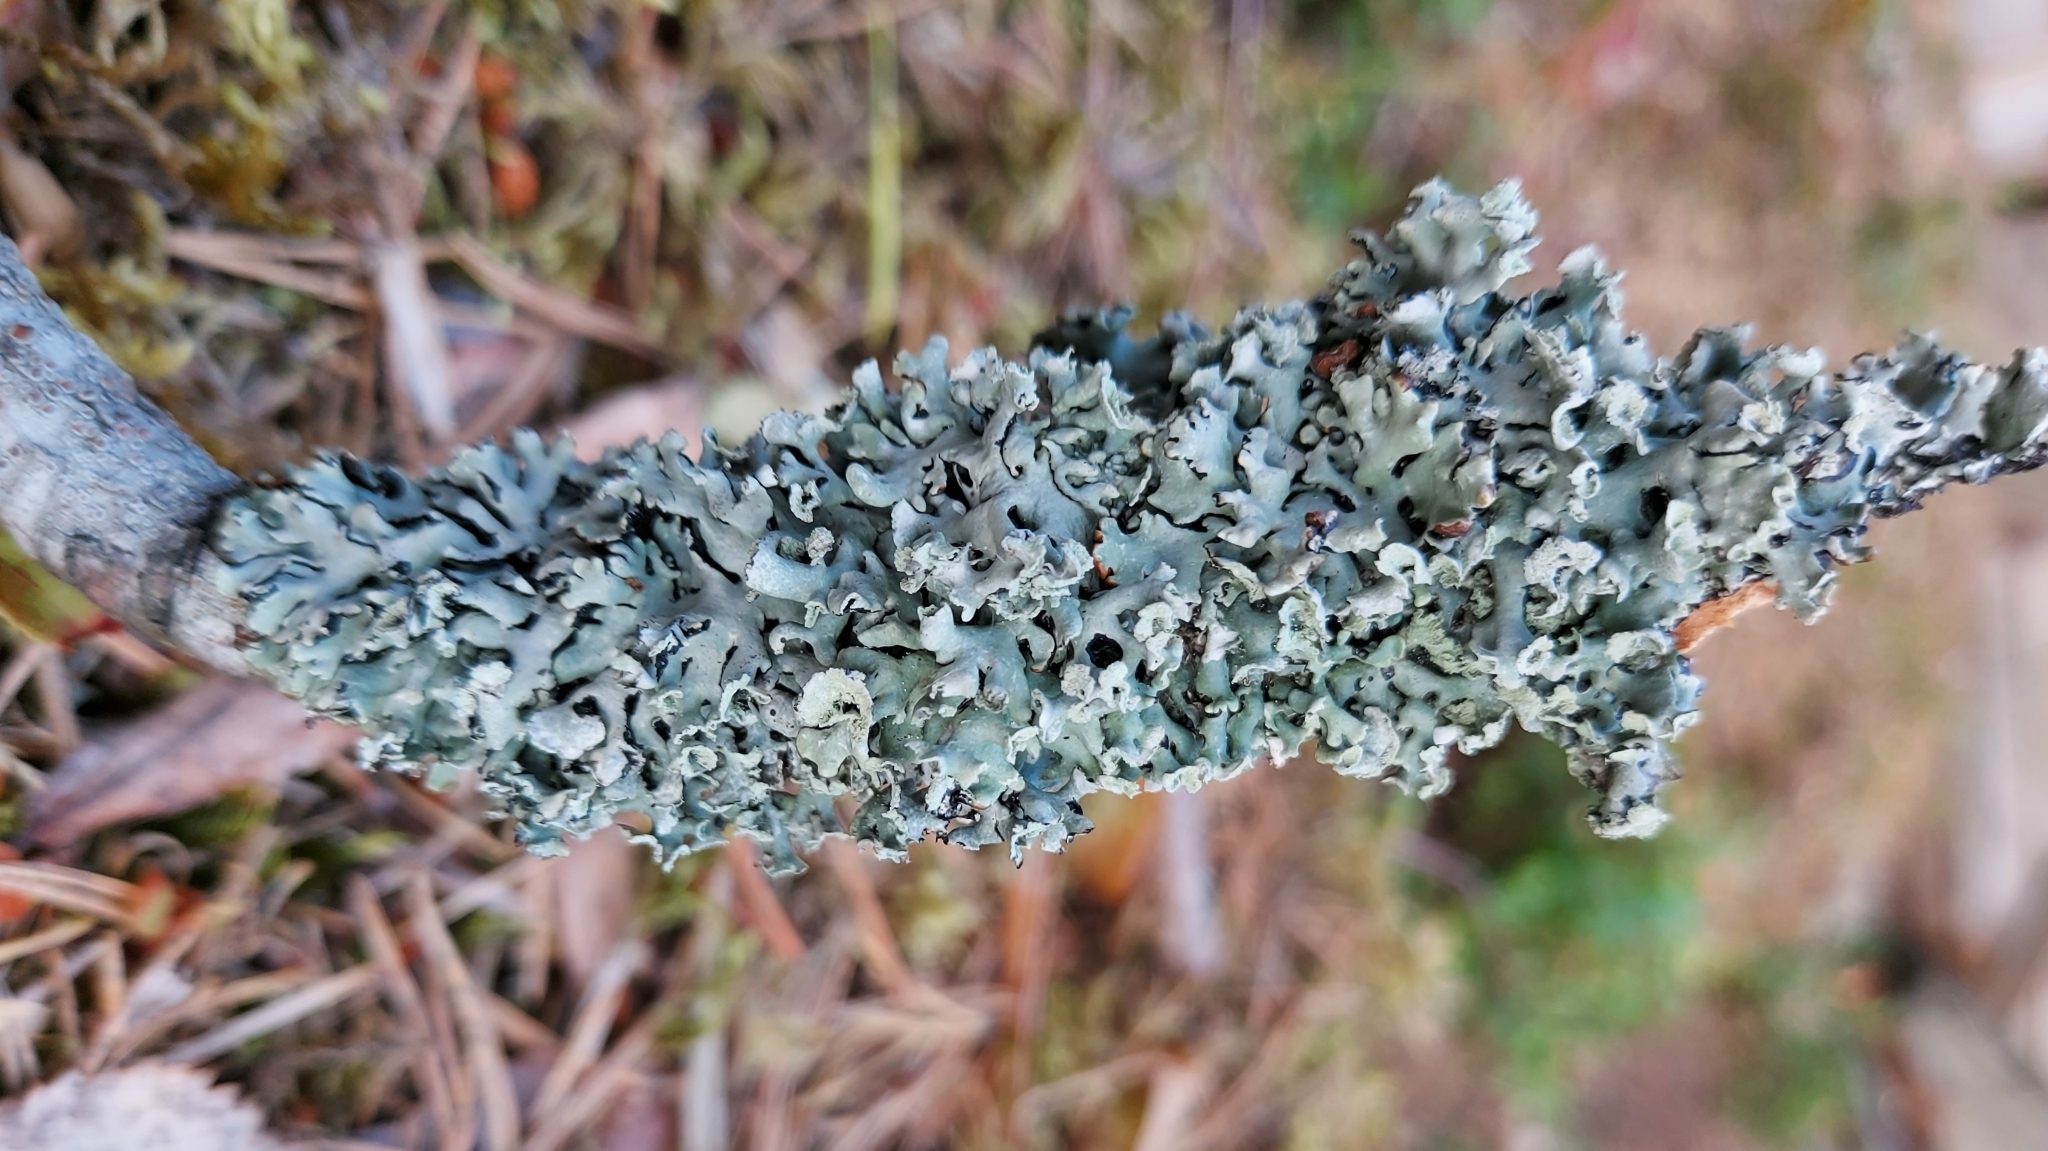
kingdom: Fungi
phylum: Ascomycota
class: Lecanoromycetes
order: Lecanorales
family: Parmeliaceae
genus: Hypogymnia
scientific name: Hypogymnia physodes
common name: Dark crottle
